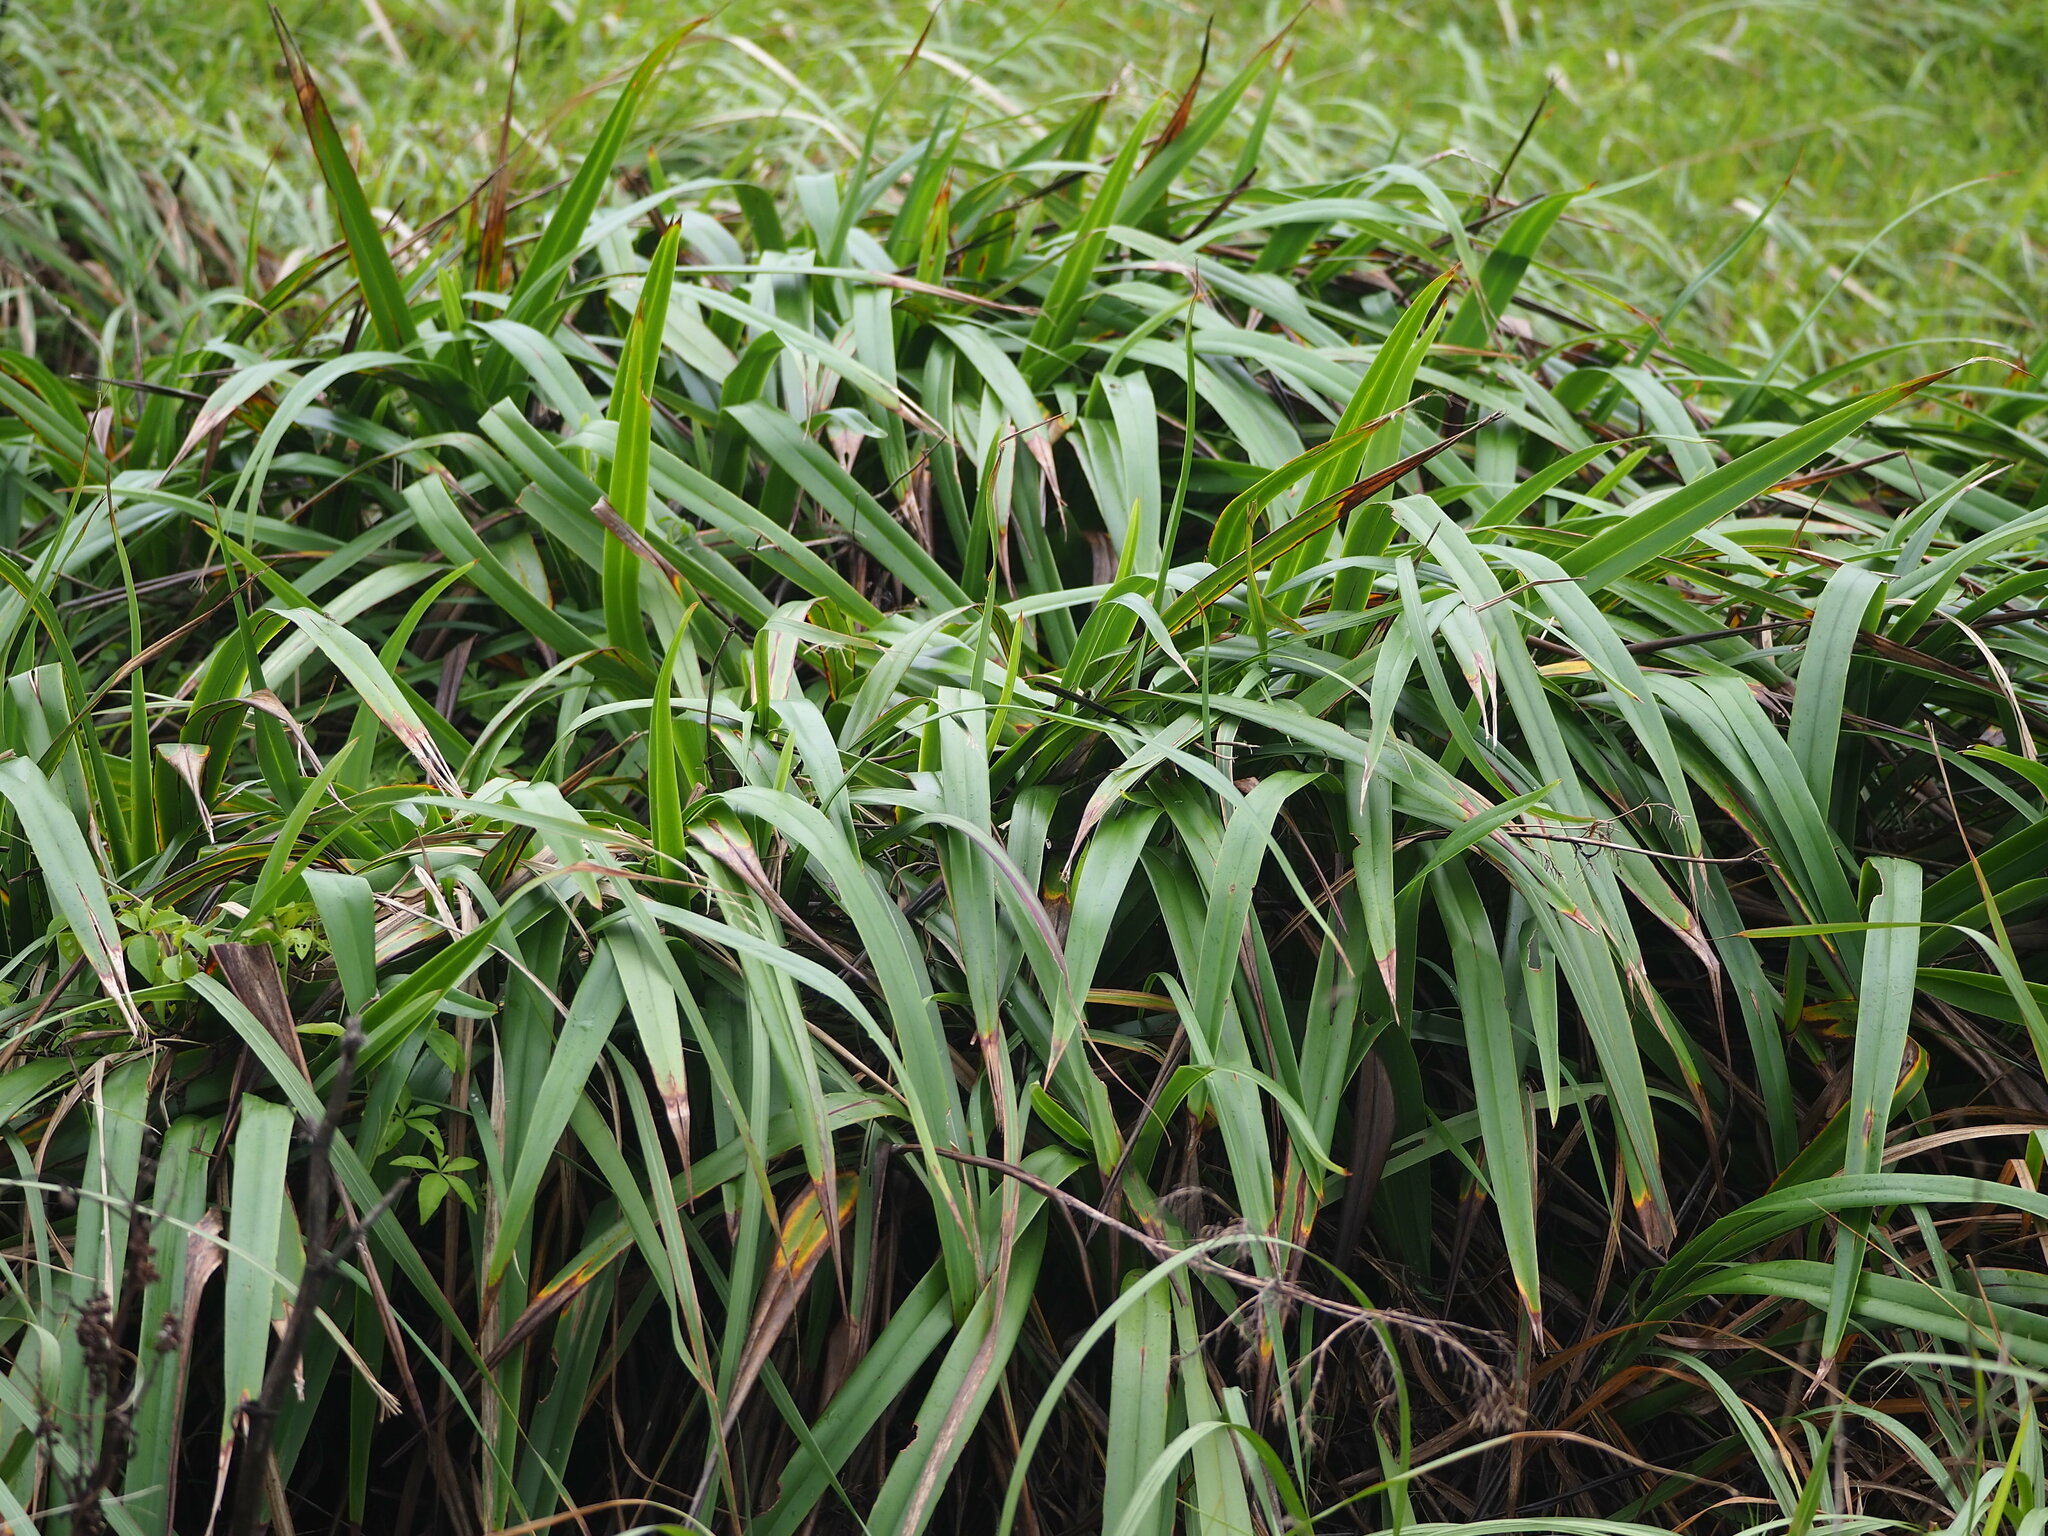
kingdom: Plantae
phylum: Tracheophyta
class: Liliopsida
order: Asparagales
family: Asphodelaceae
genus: Dianella
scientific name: Dianella ensifolia
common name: New zealand lilyplant
